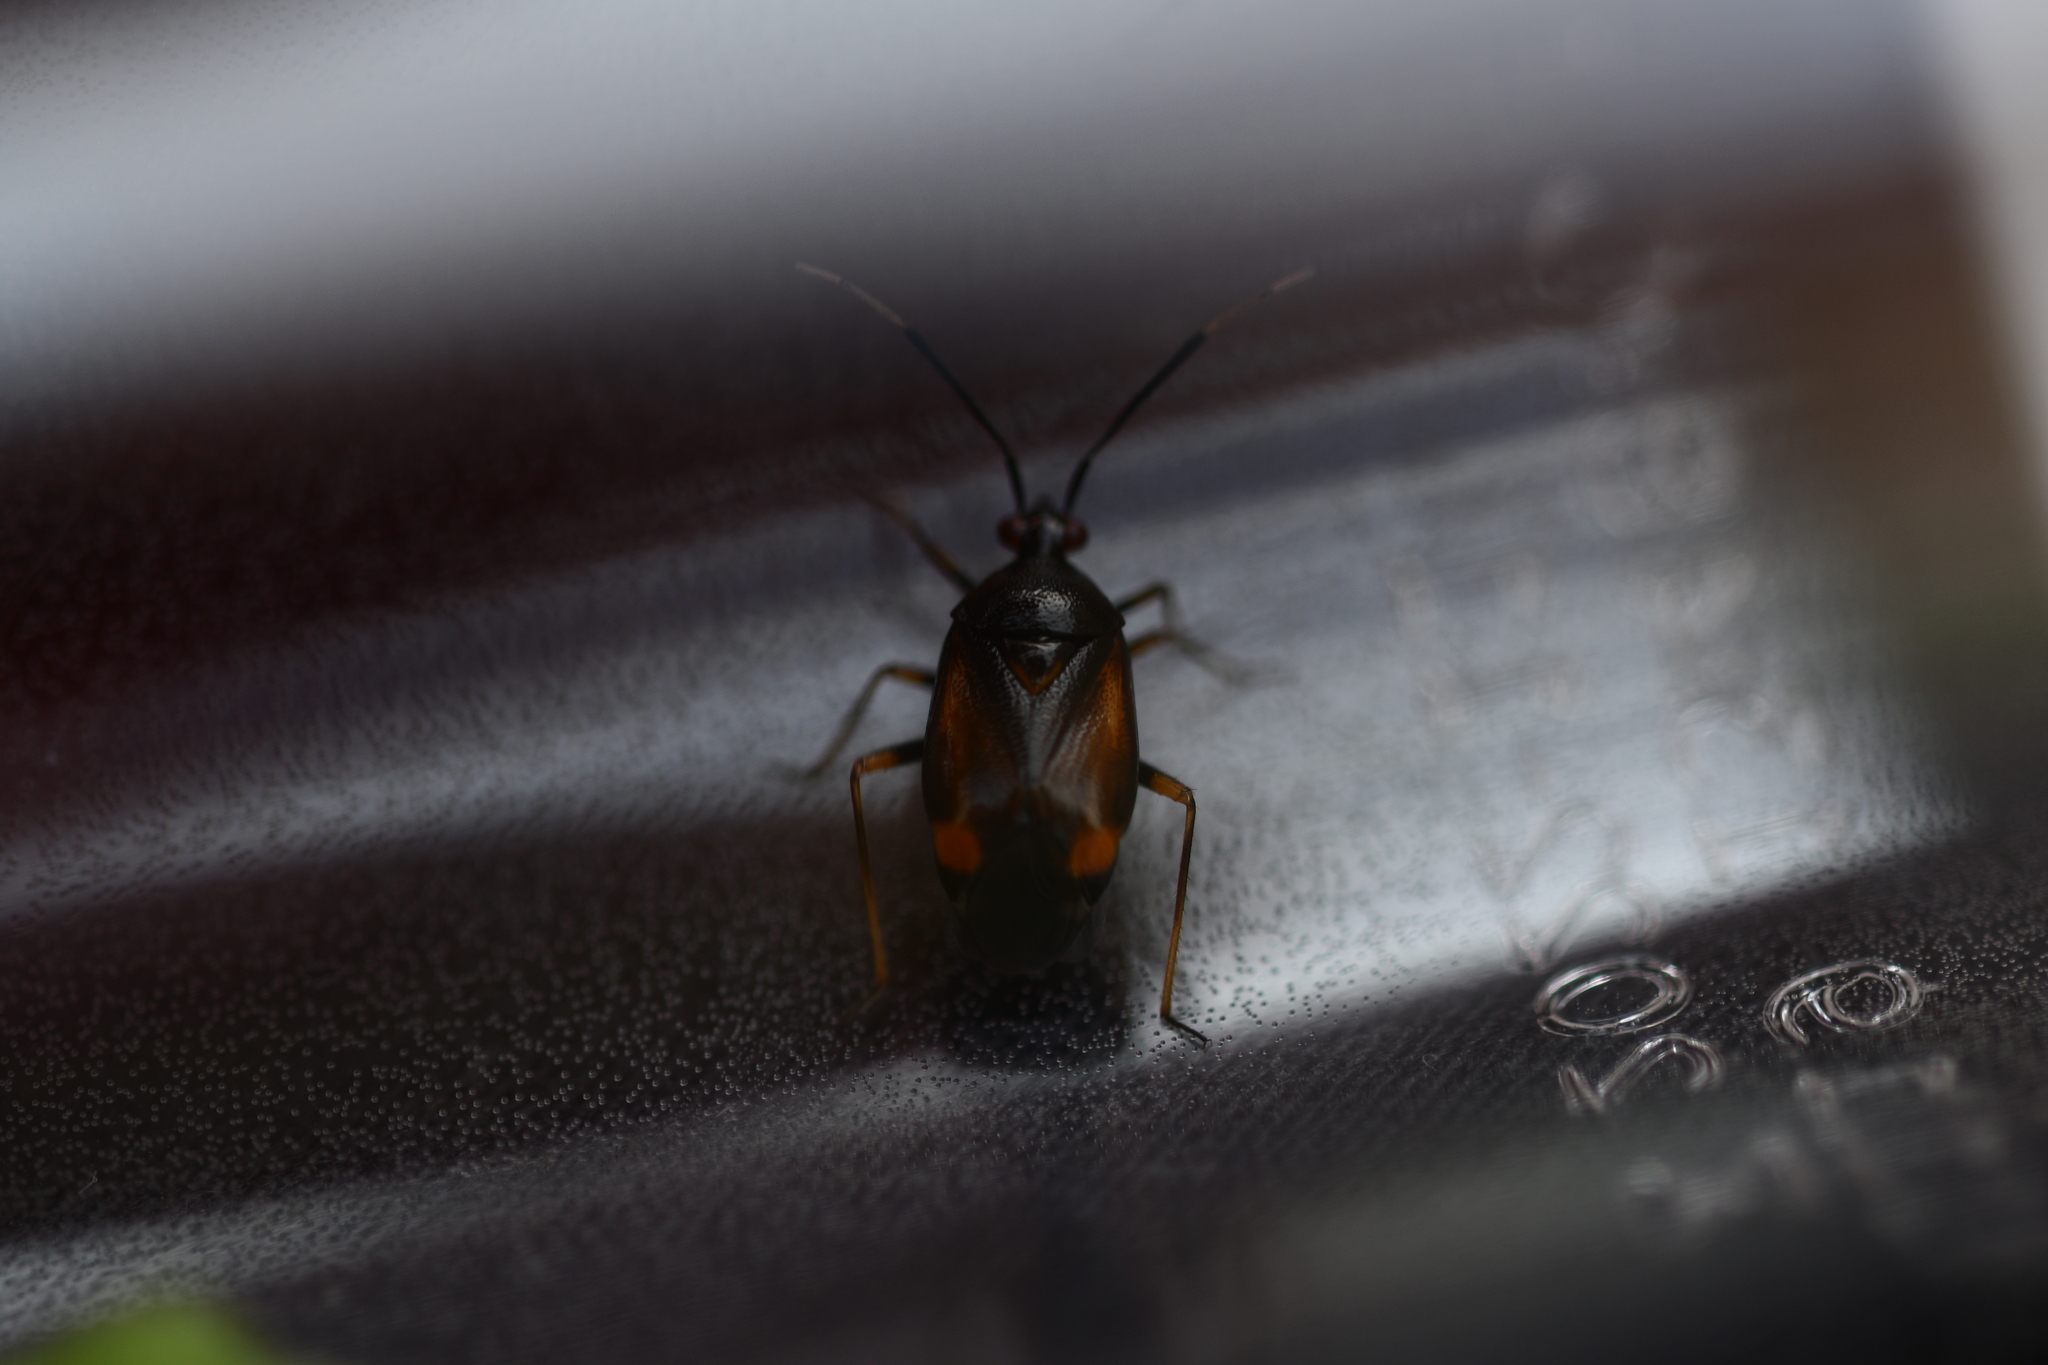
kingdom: Animalia
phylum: Arthropoda
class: Insecta
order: Hemiptera
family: Miridae
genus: Deraeocoris
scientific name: Deraeocoris ruber
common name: Plant bug
